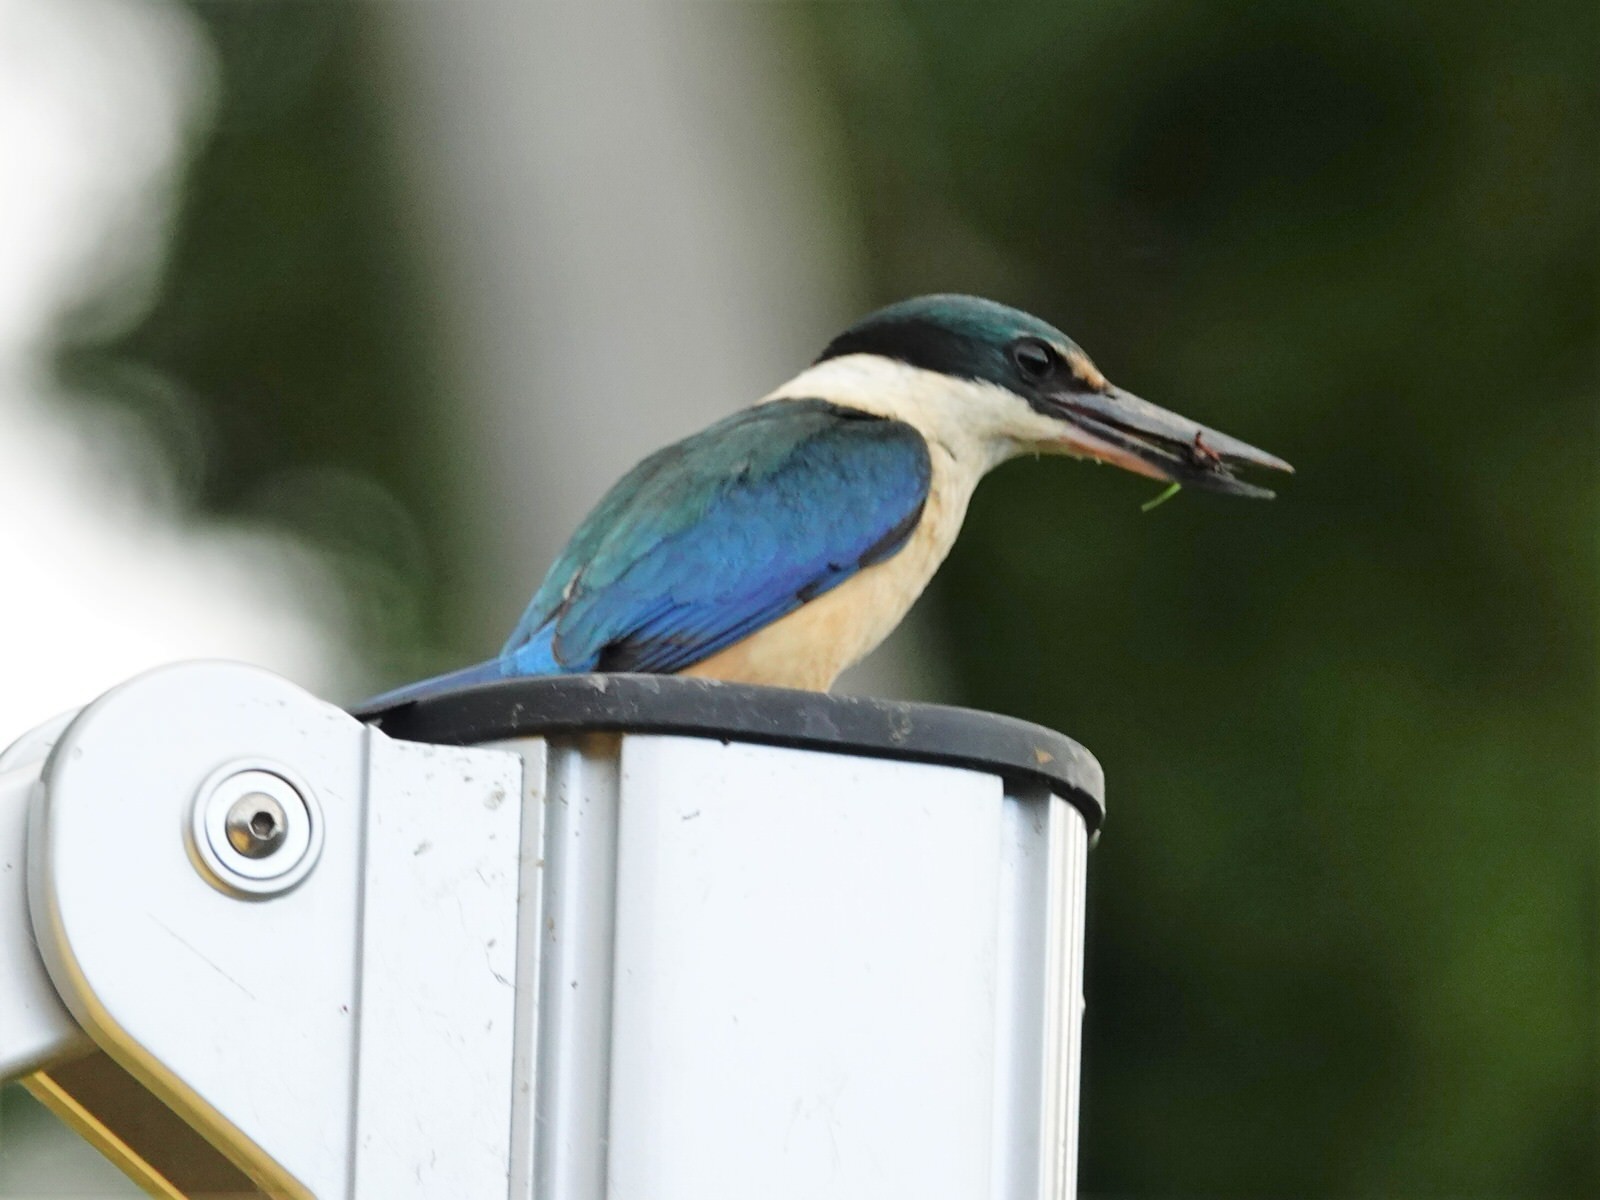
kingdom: Animalia
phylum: Chordata
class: Aves
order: Coraciiformes
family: Alcedinidae
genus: Todiramphus
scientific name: Todiramphus sanctus
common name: Sacred kingfisher
